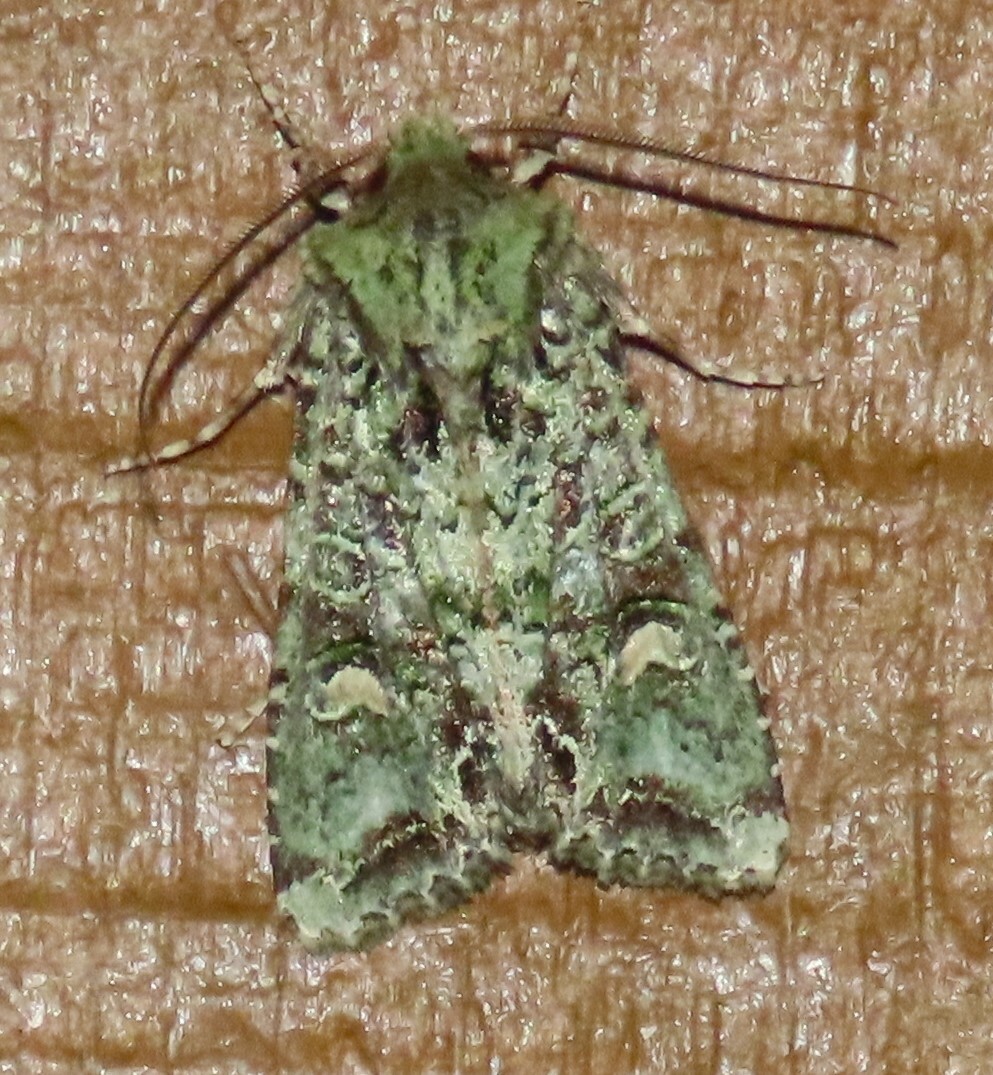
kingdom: Animalia
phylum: Arthropoda
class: Insecta
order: Lepidoptera
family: Noctuidae
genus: Ichneutica
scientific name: Ichneutica
